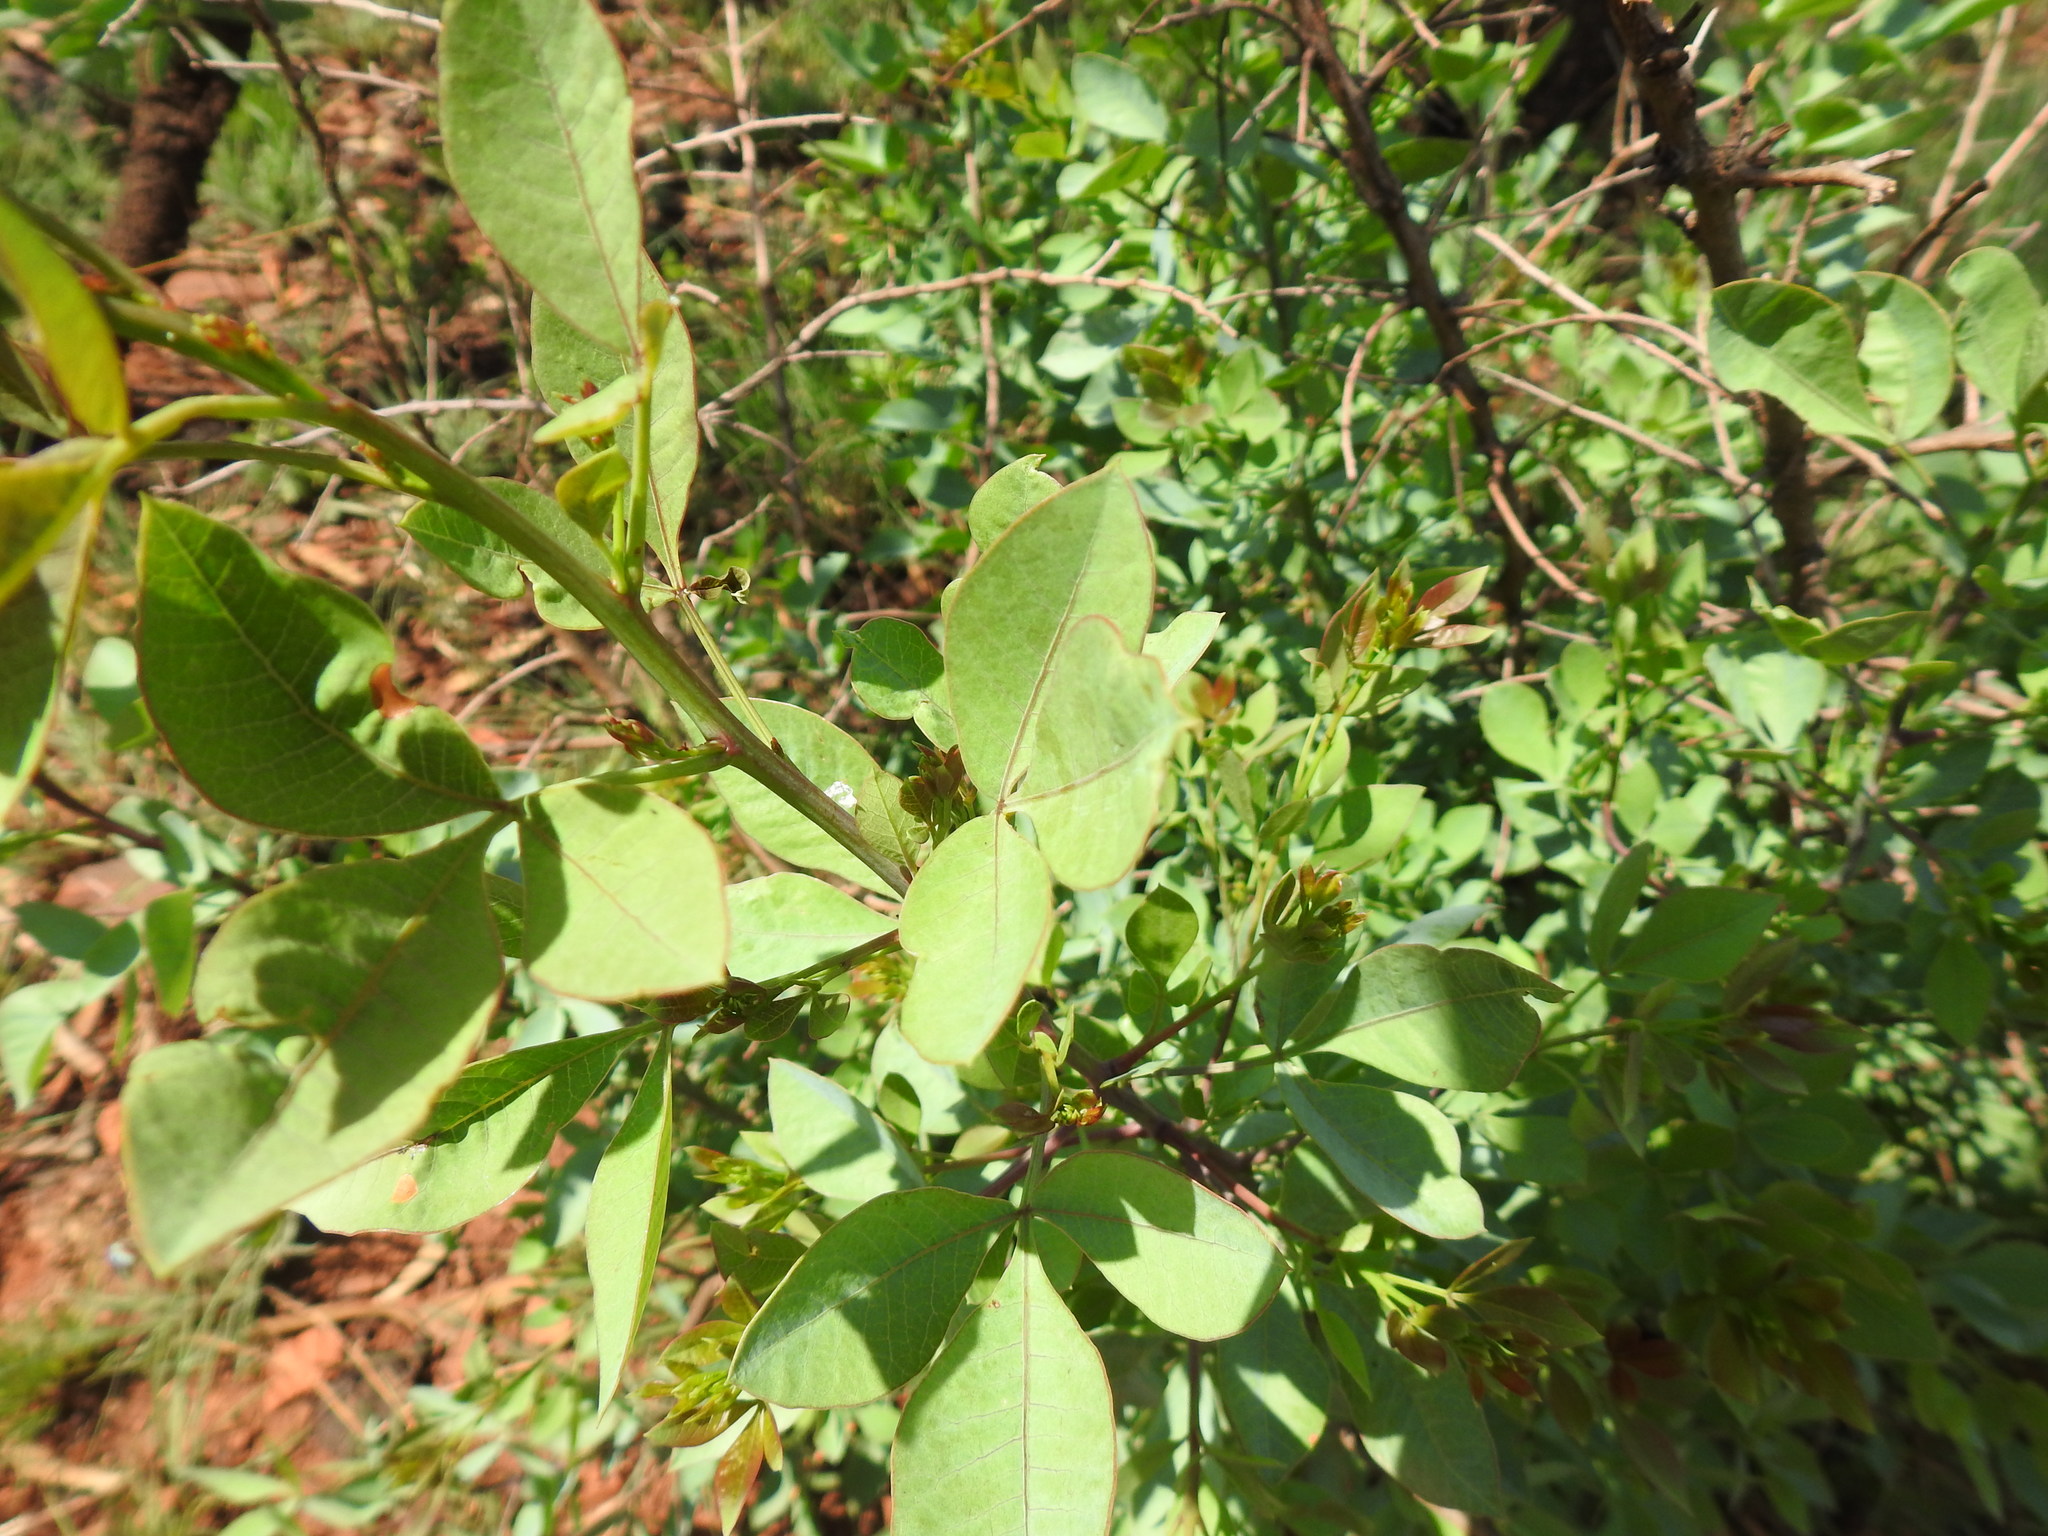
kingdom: Plantae
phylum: Tracheophyta
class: Magnoliopsida
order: Sapindales
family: Anacardiaceae
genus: Searsia
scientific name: Searsia zeyheri
